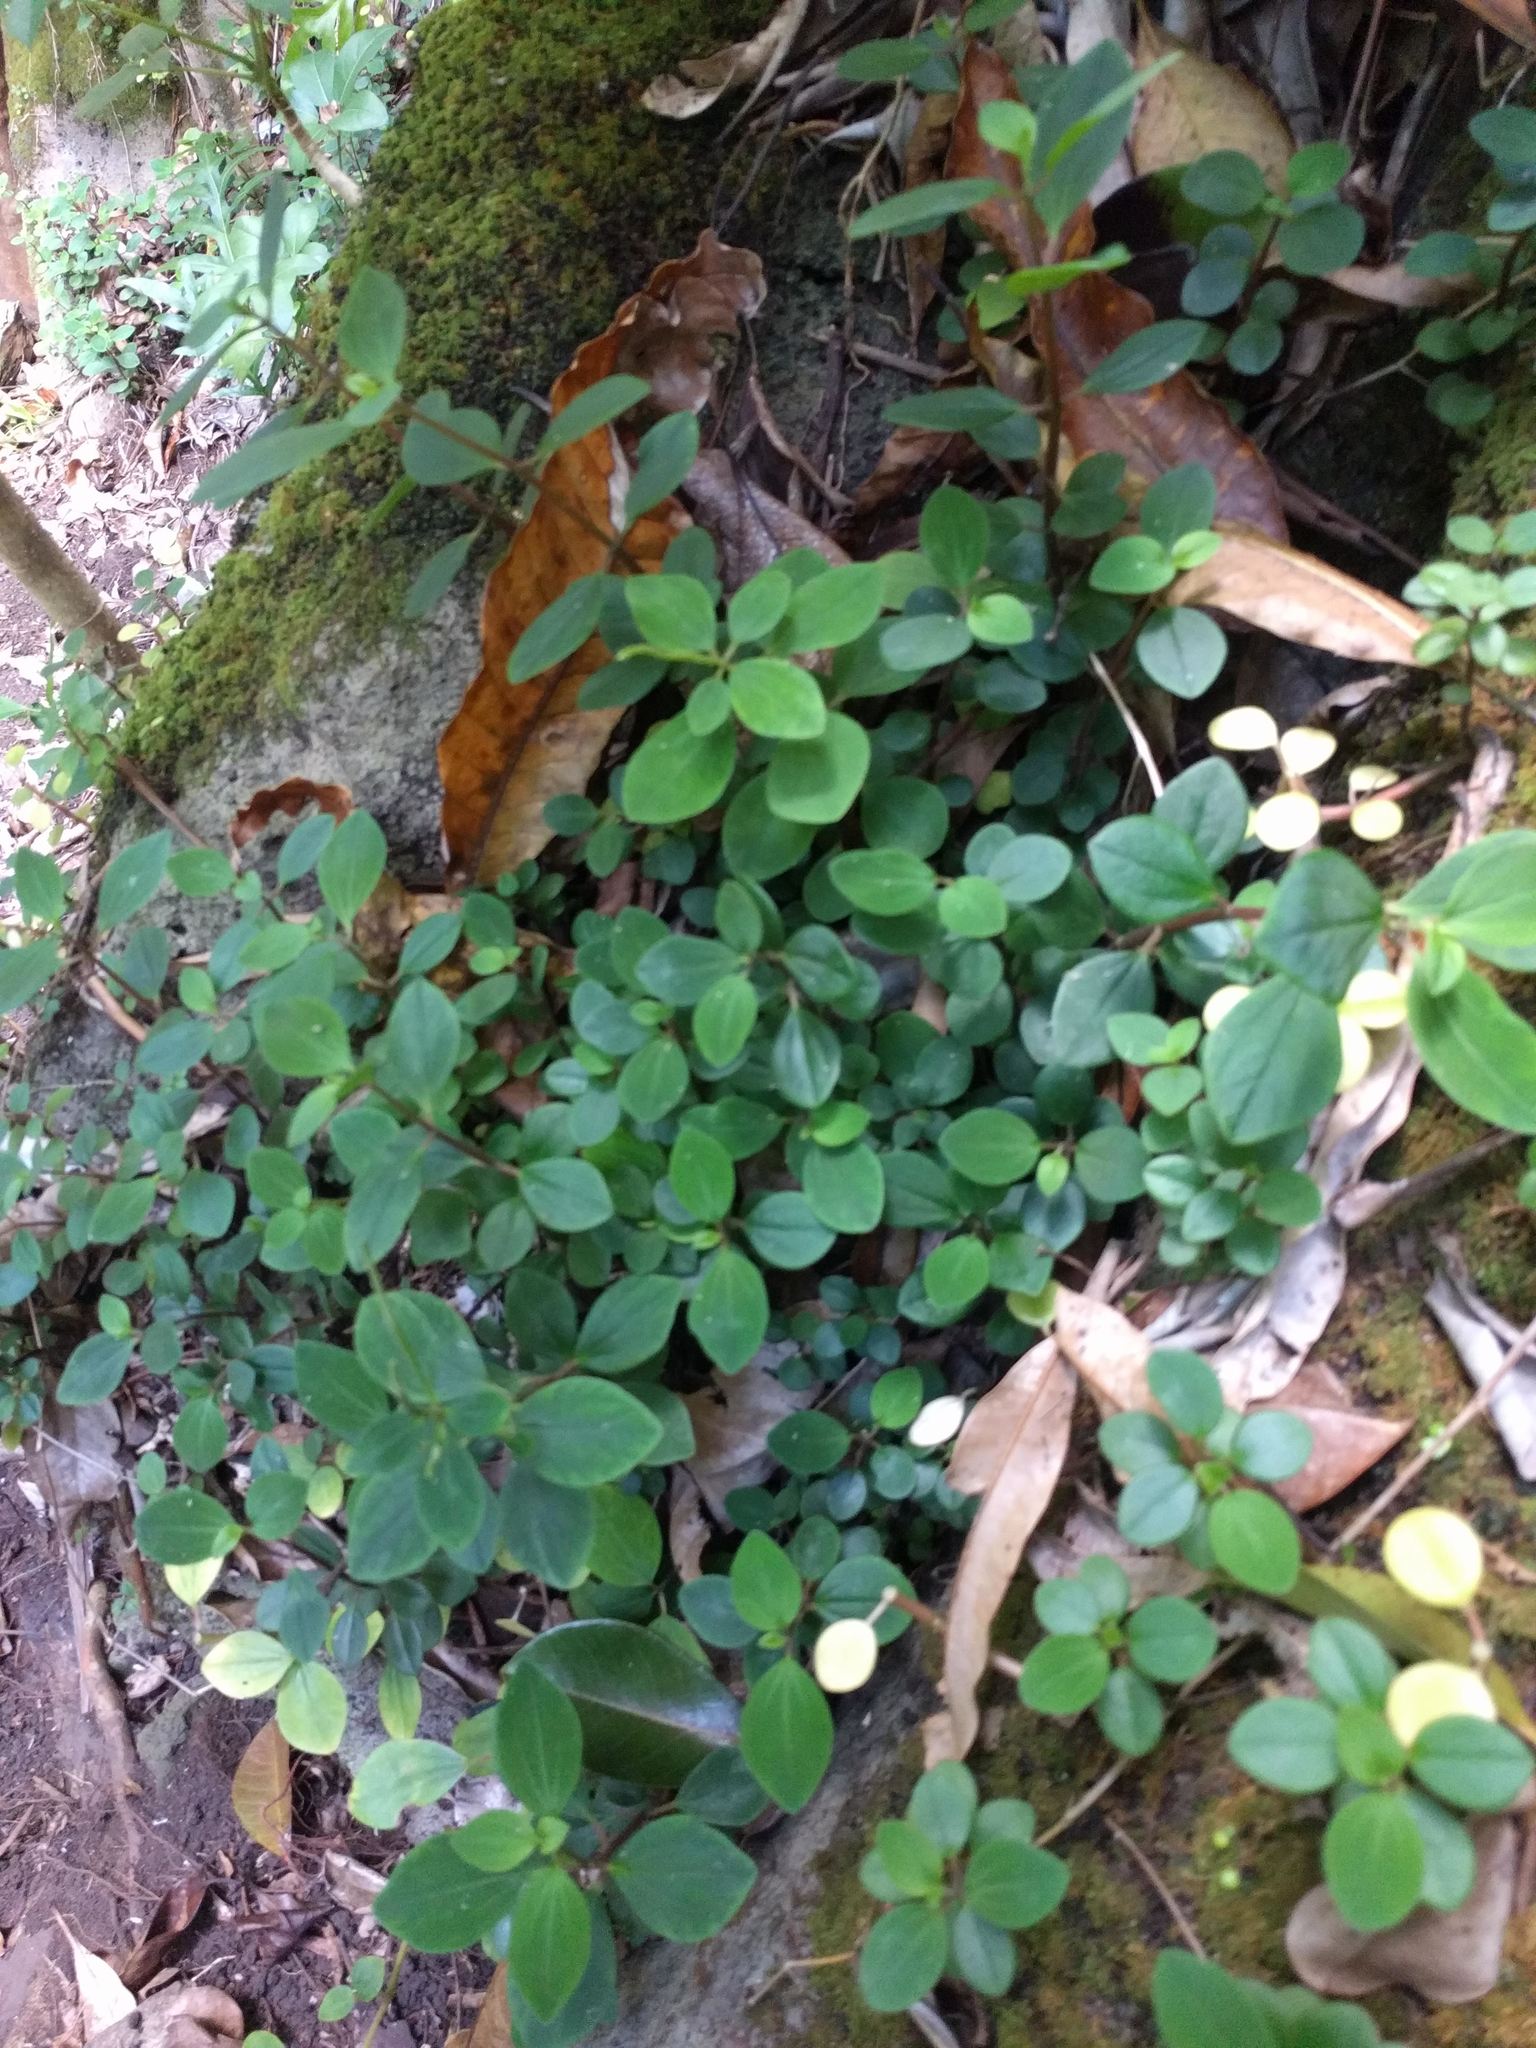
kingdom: Plantae
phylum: Tracheophyta
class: Magnoliopsida
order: Piperales
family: Piperaceae
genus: Peperomia
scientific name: Peperomia leptostachya
